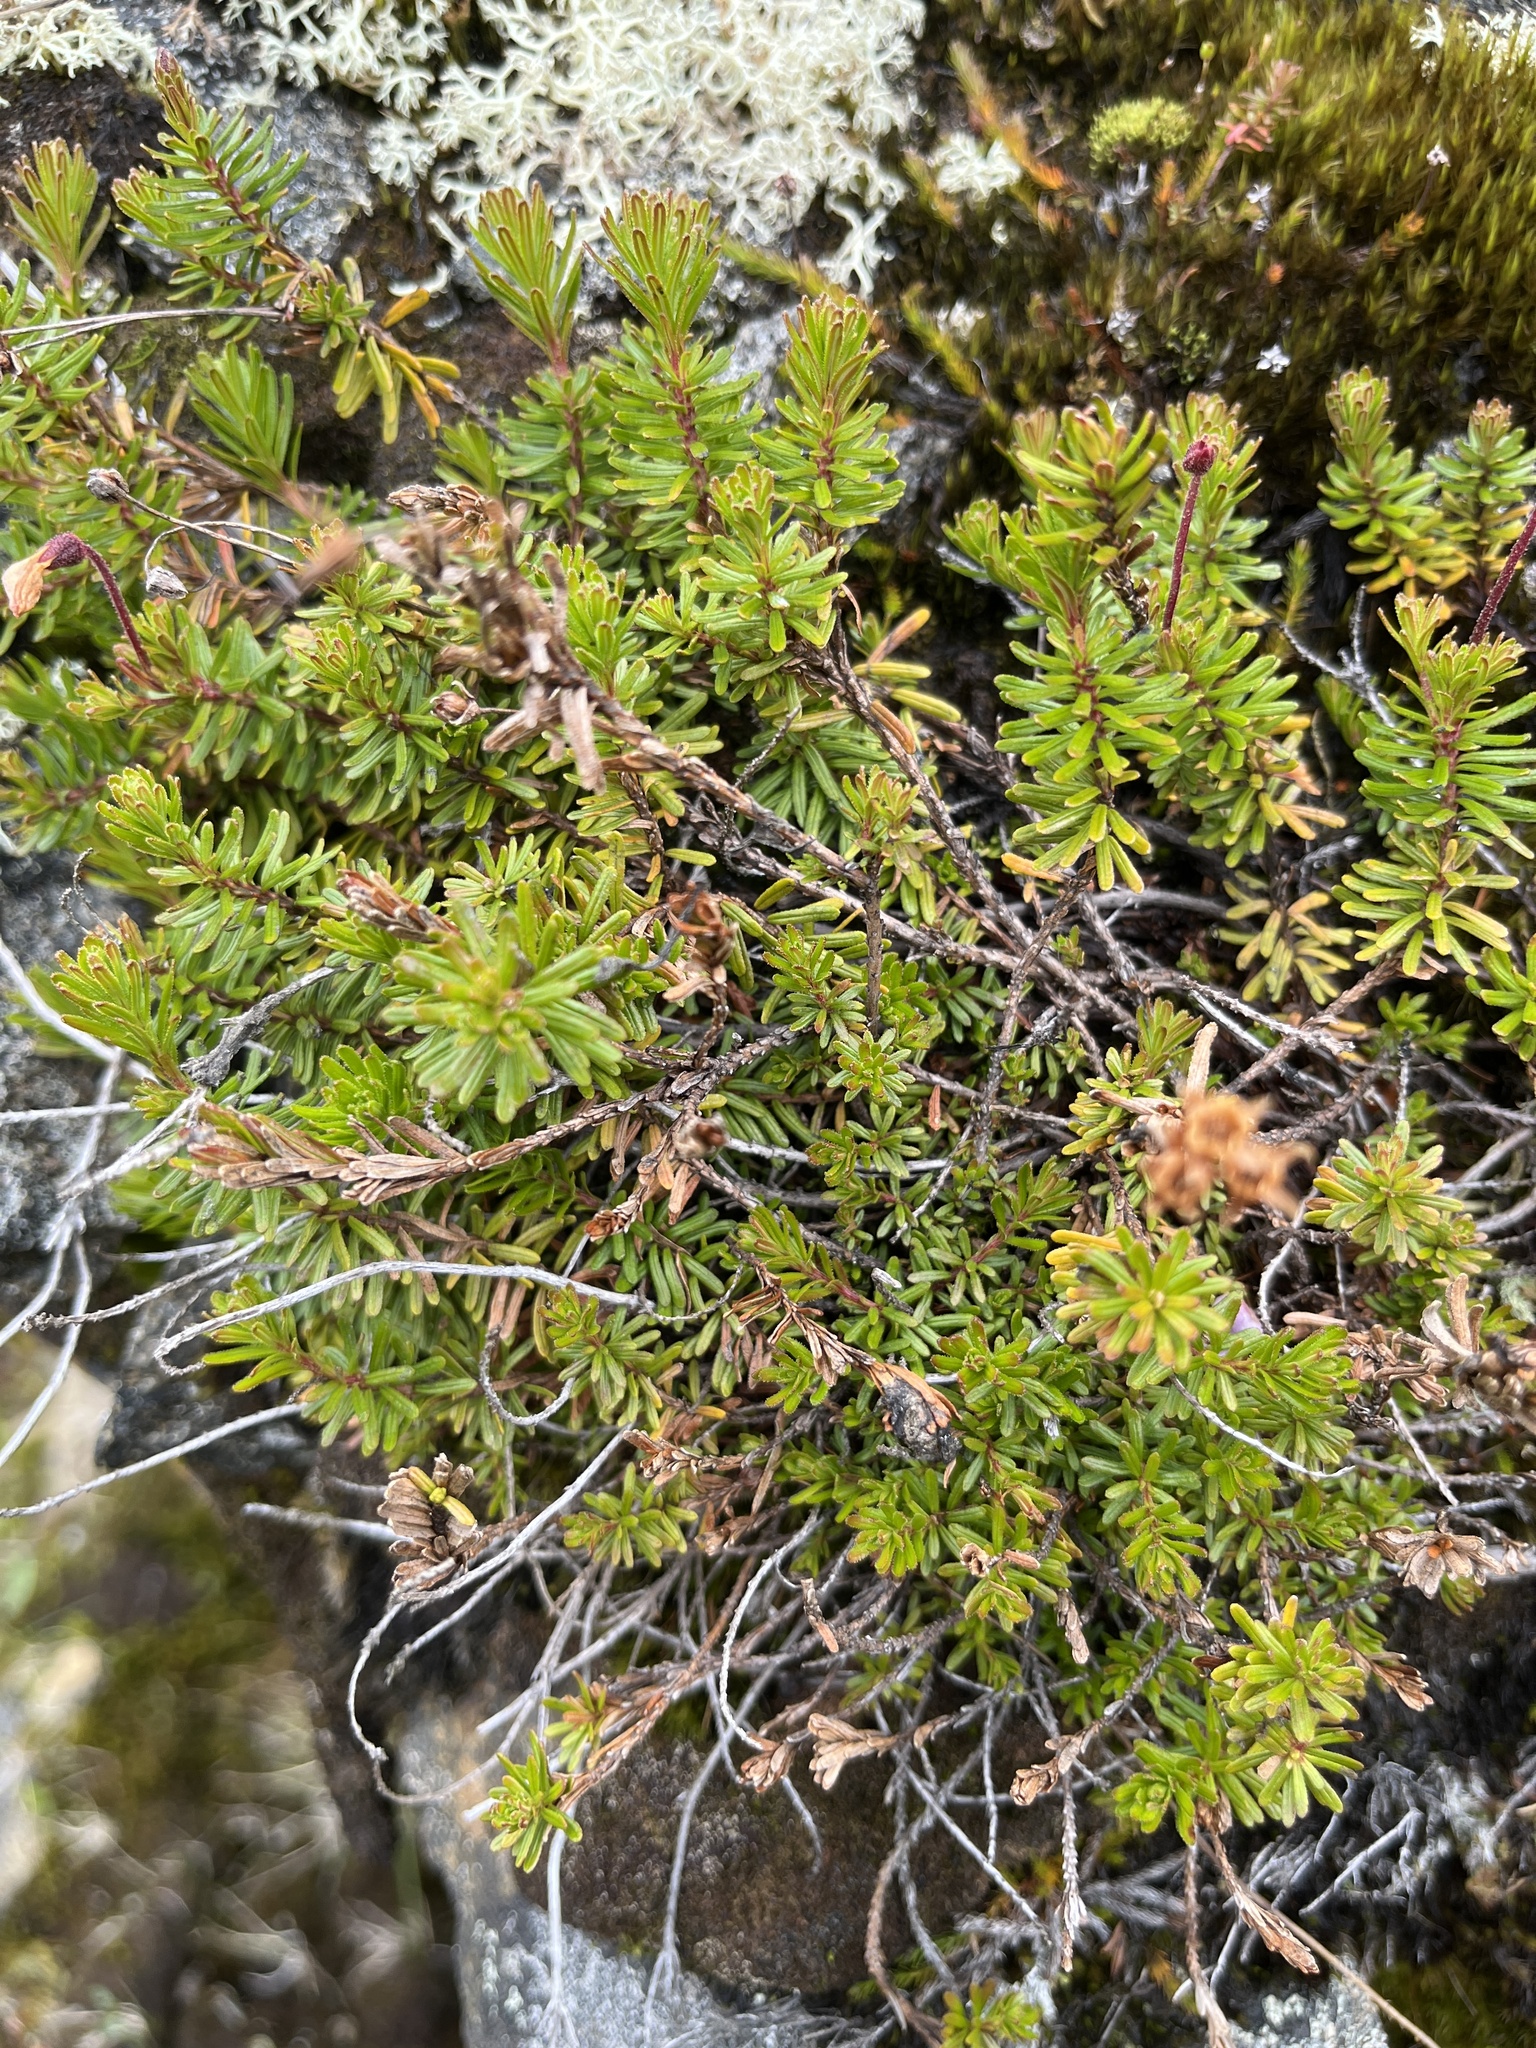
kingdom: Plantae
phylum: Tracheophyta
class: Magnoliopsida
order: Ericales
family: Ericaceae
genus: Phyllodoce
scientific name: Phyllodoce caerulea
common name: Blue heath
